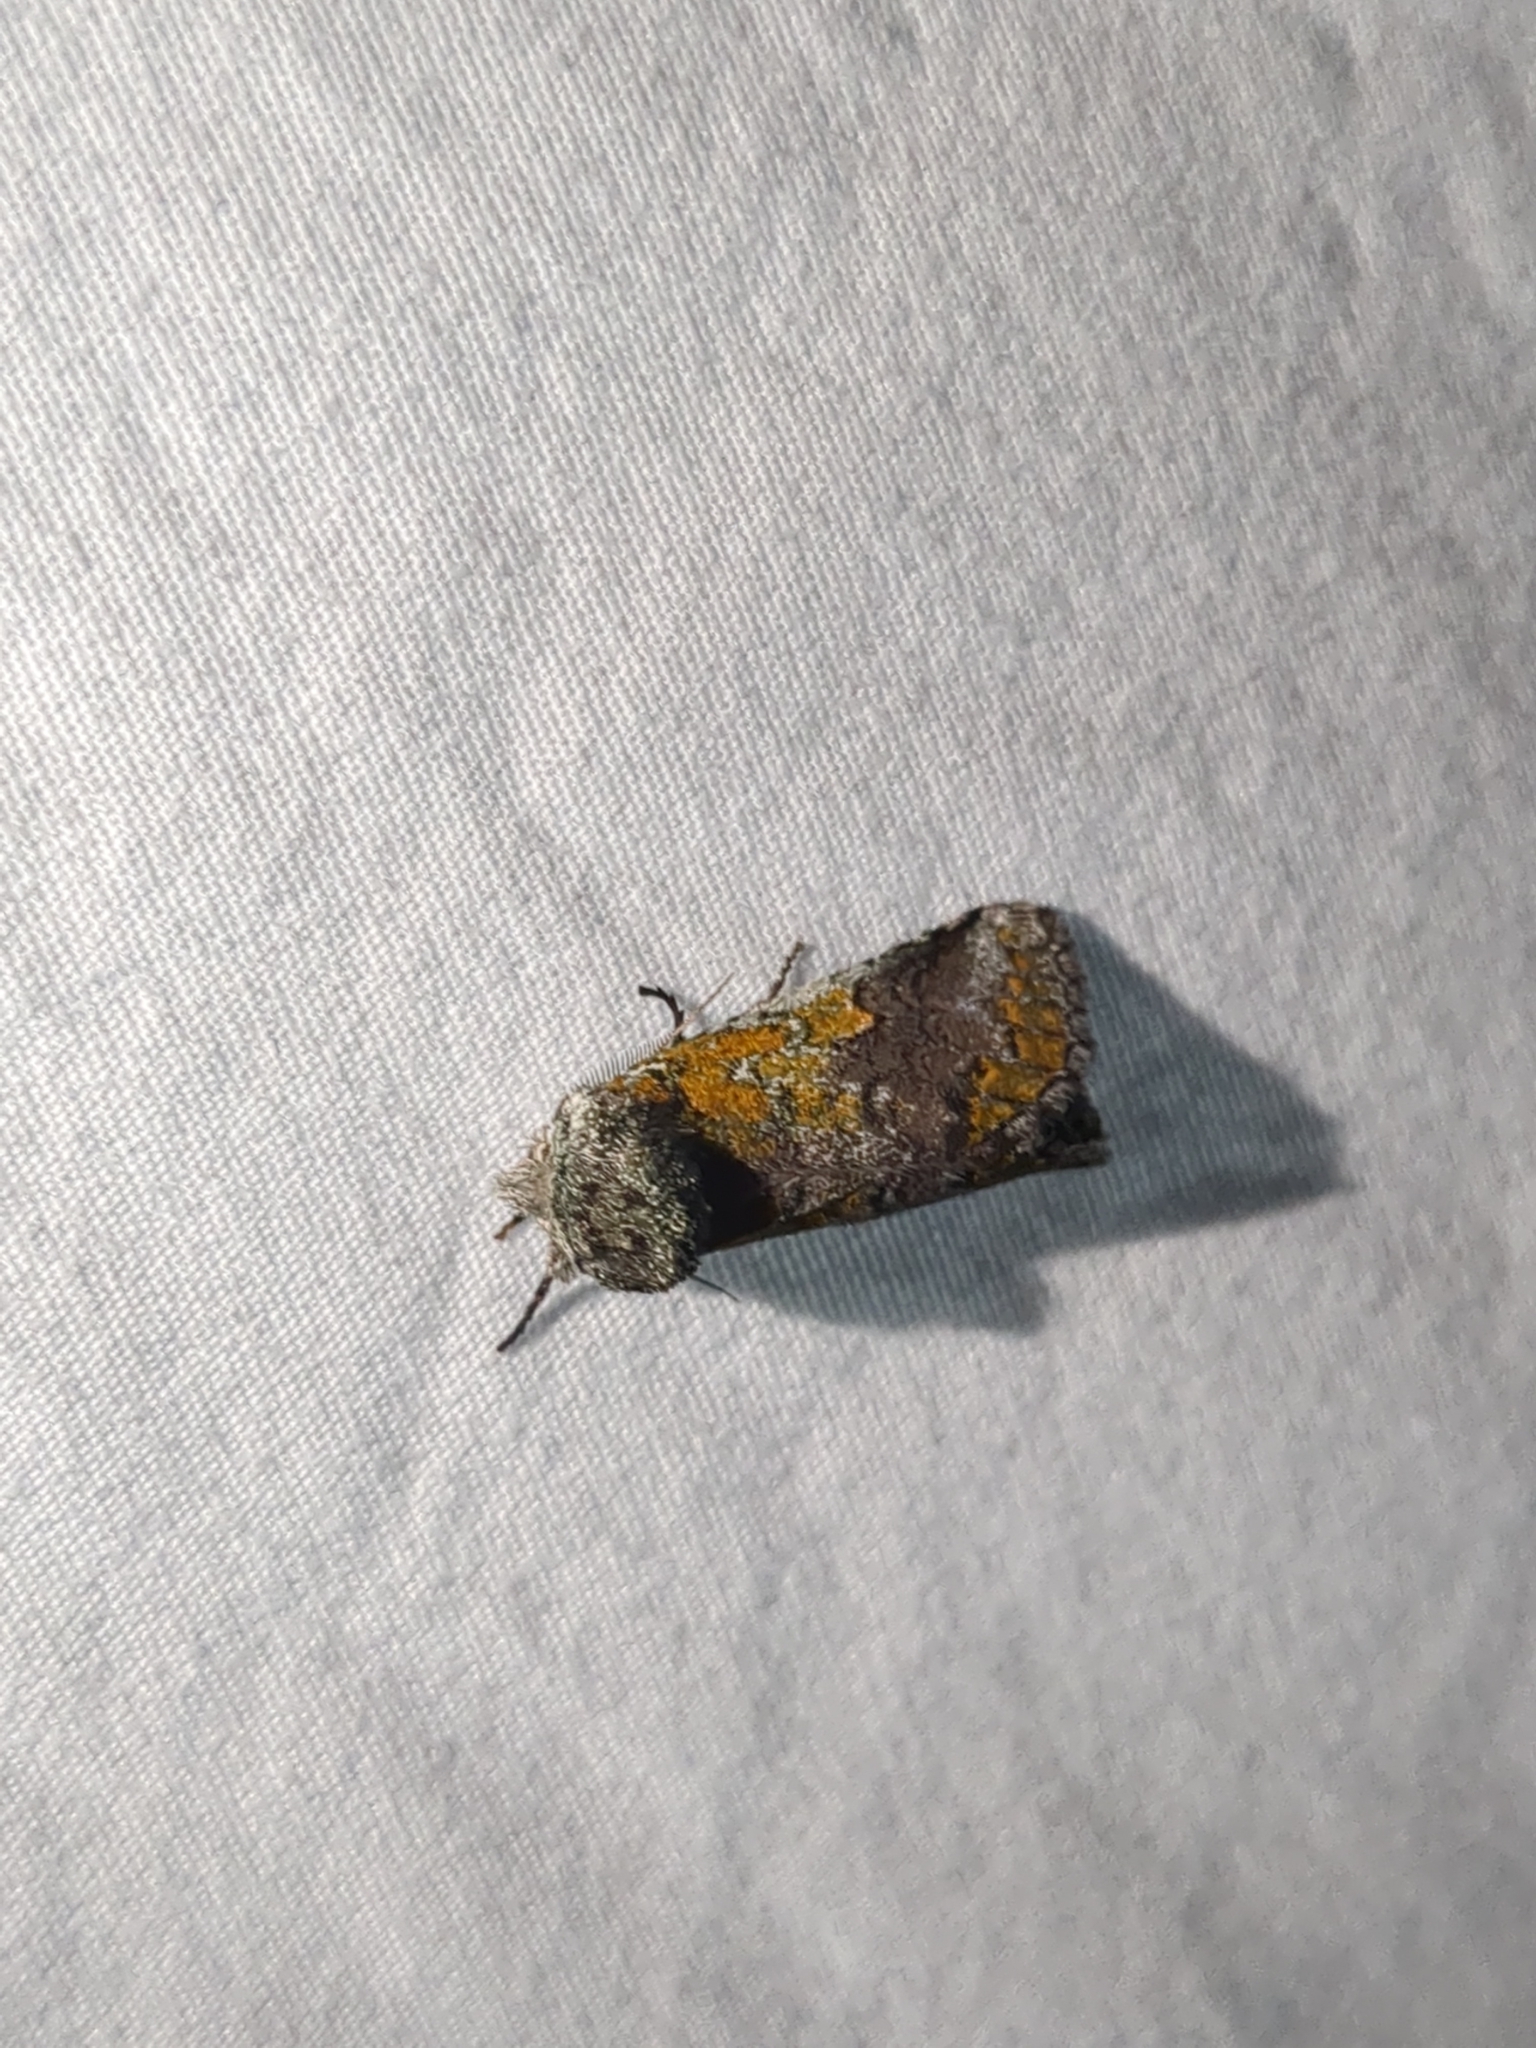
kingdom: Animalia
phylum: Arthropoda
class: Insecta
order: Lepidoptera
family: Notodontidae
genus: Litodonta
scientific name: Litodonta hydromeli
